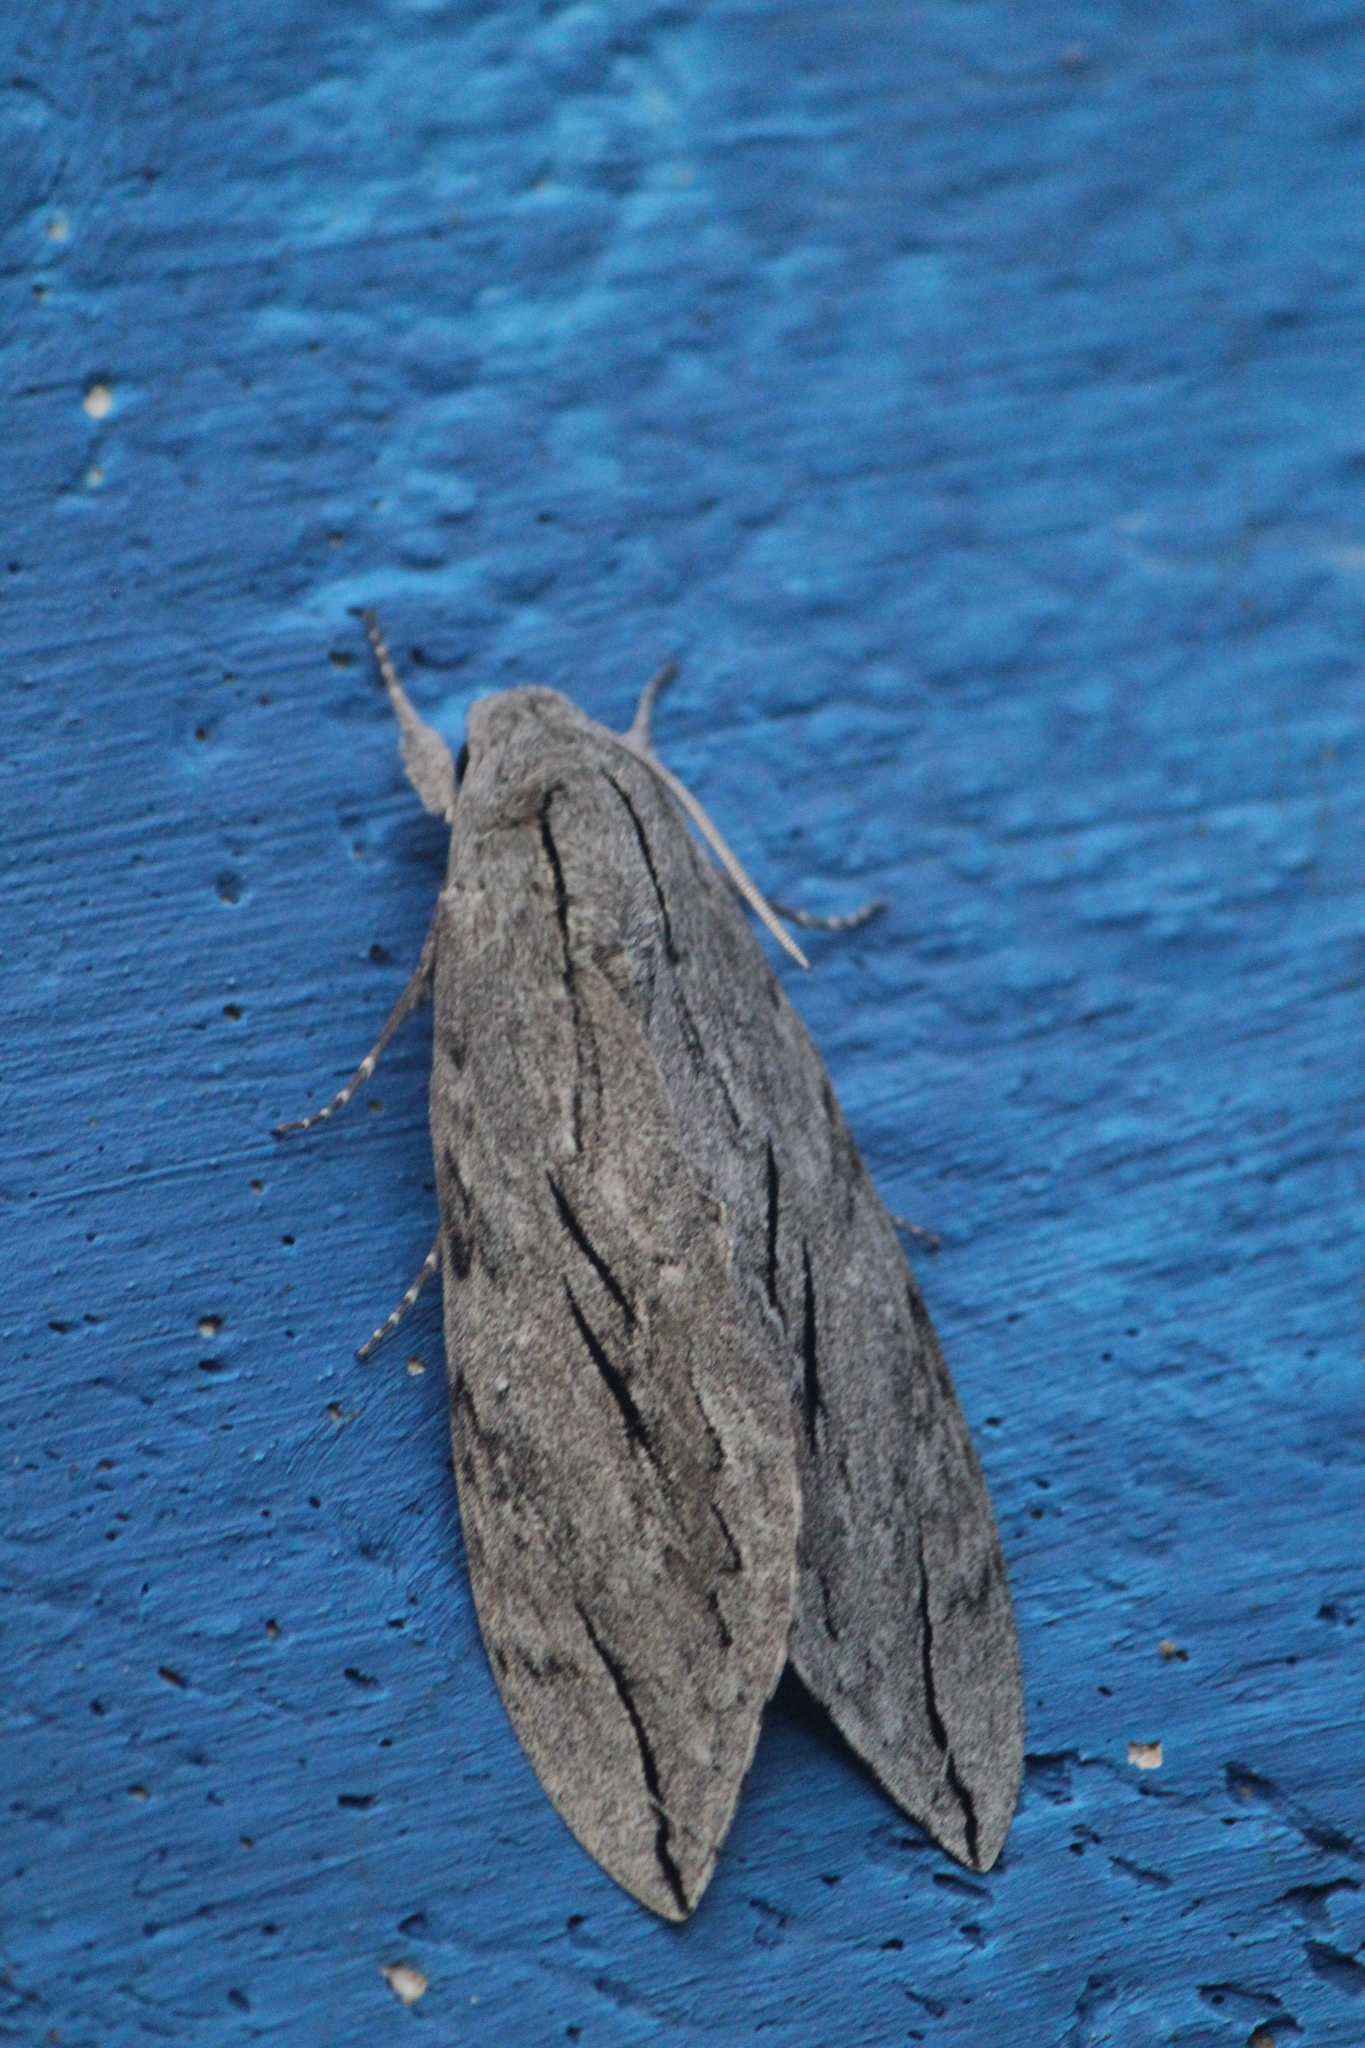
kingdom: Animalia
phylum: Arthropoda
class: Insecta
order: Lepidoptera
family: Sphingidae
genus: Sphinx
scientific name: Sphinx leucophaeata
